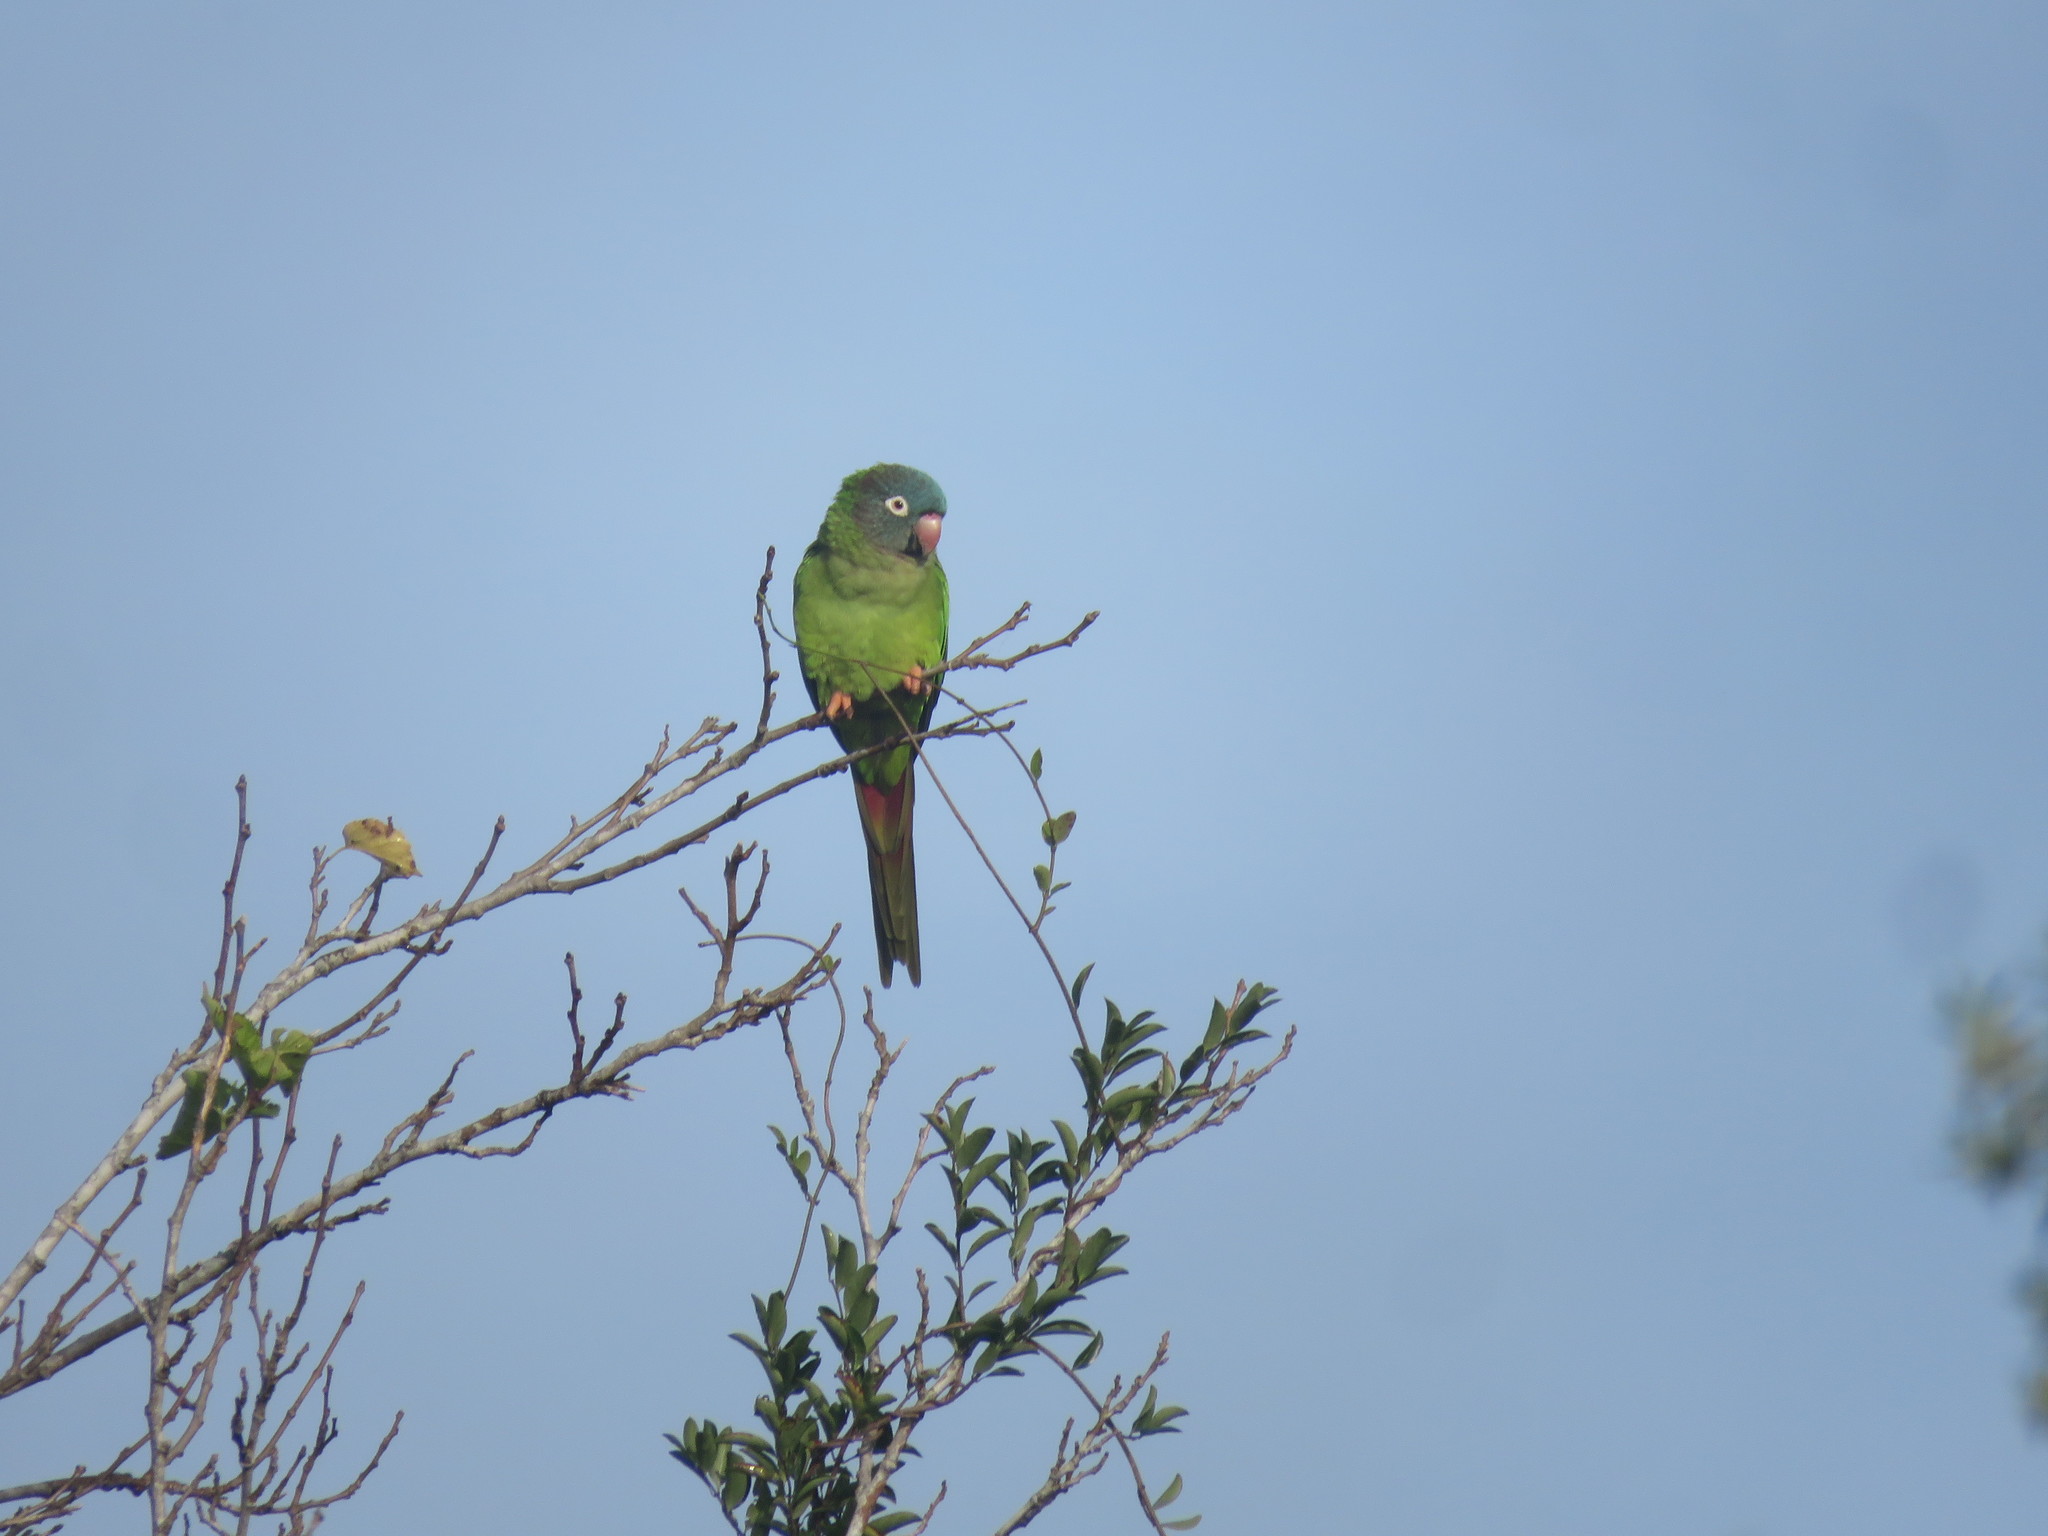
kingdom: Animalia
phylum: Chordata
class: Aves
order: Psittaciformes
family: Psittacidae
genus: Aratinga
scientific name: Aratinga acuticaudata
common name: Blue-crowned parakeet
